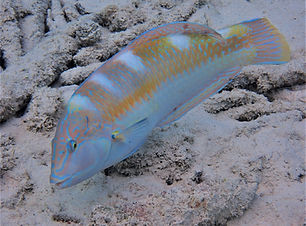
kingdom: Animalia
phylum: Chordata
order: Perciformes
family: Labridae
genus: Halichoeres
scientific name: Halichoeres radiatus
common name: Puddingwife
